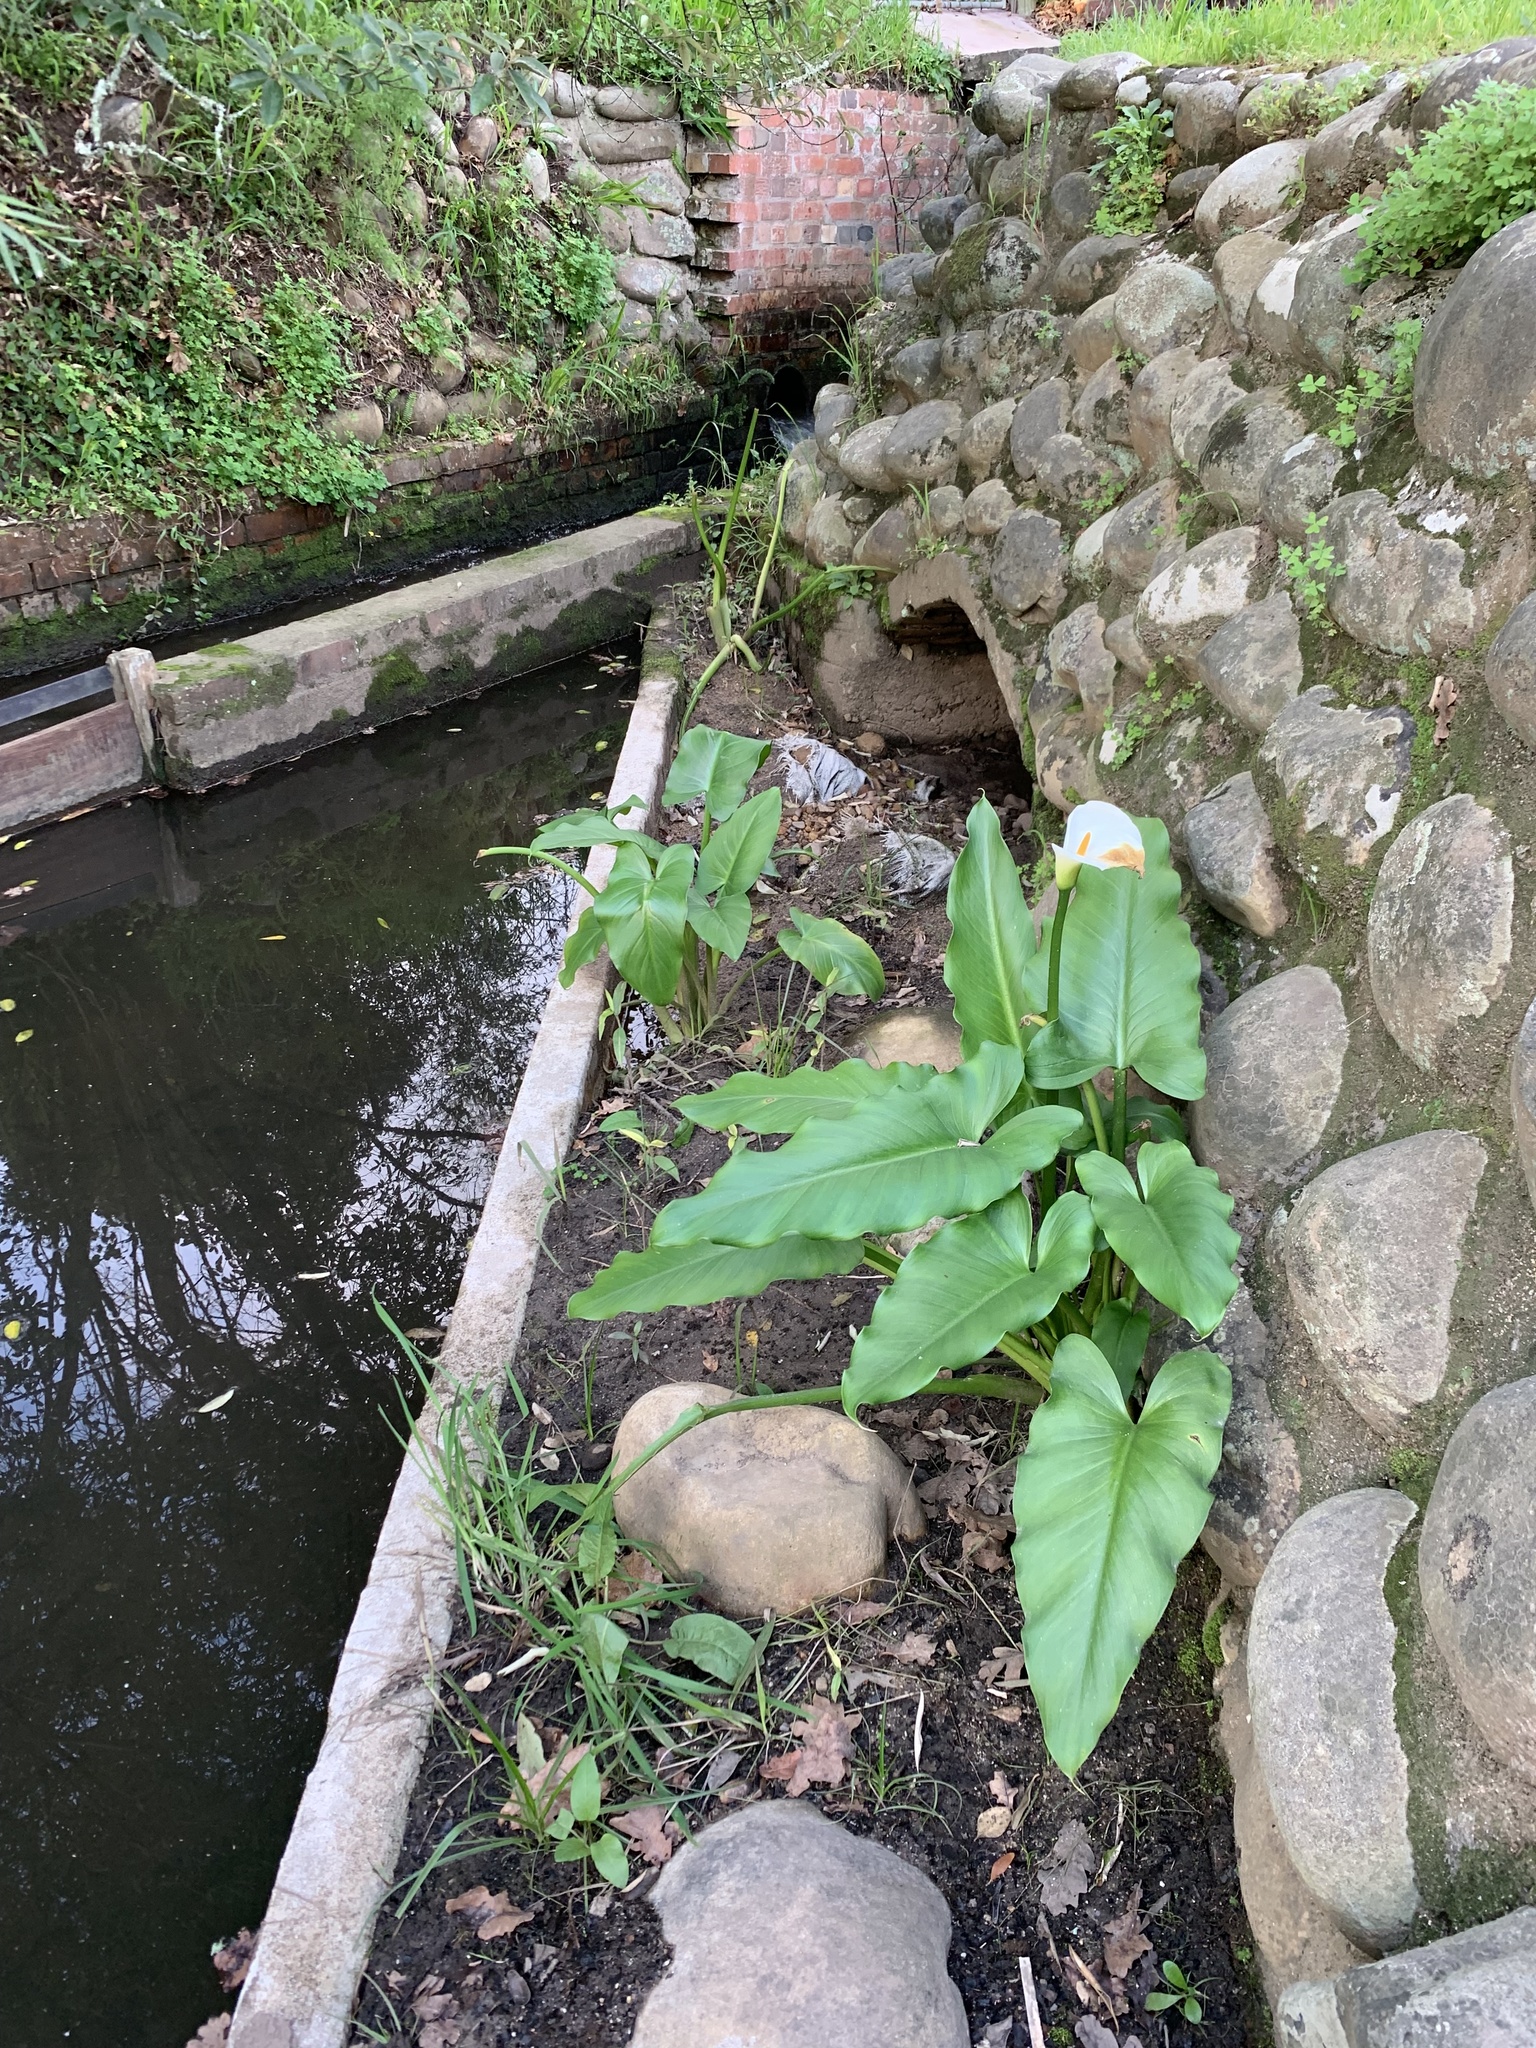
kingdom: Plantae
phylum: Tracheophyta
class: Liliopsida
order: Alismatales
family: Araceae
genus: Zantedeschia
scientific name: Zantedeschia aethiopica
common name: Altar-lily
